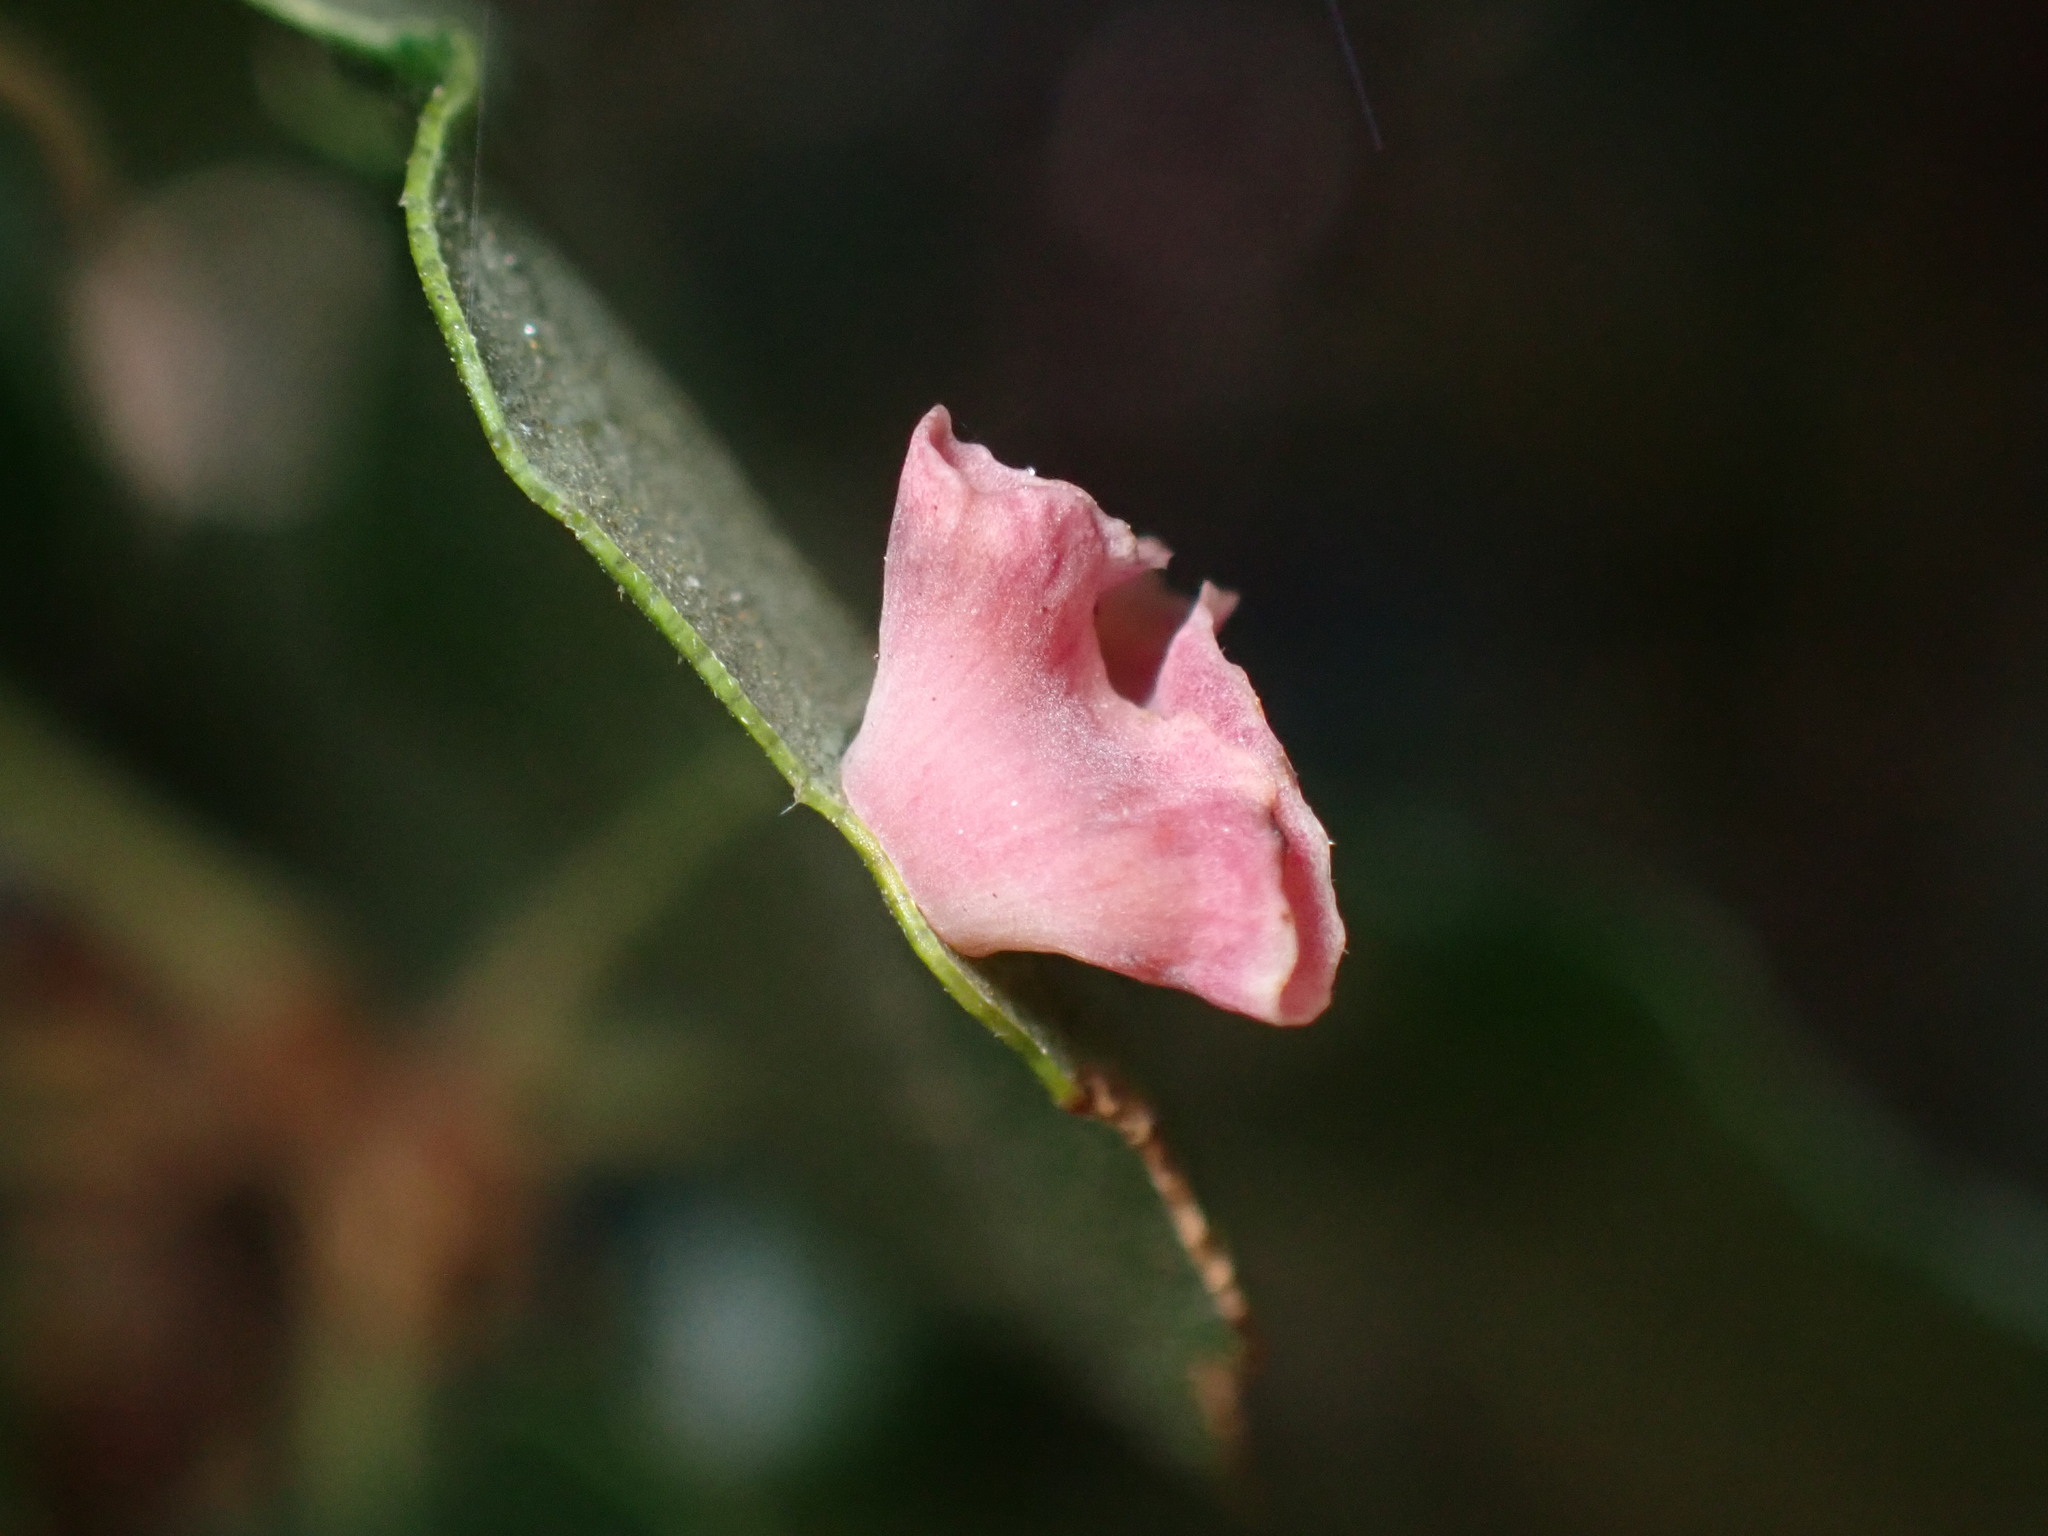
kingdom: Animalia
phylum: Arthropoda
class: Insecta
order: Hymenoptera
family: Cynipidae
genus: Andricus
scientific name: Andricus
